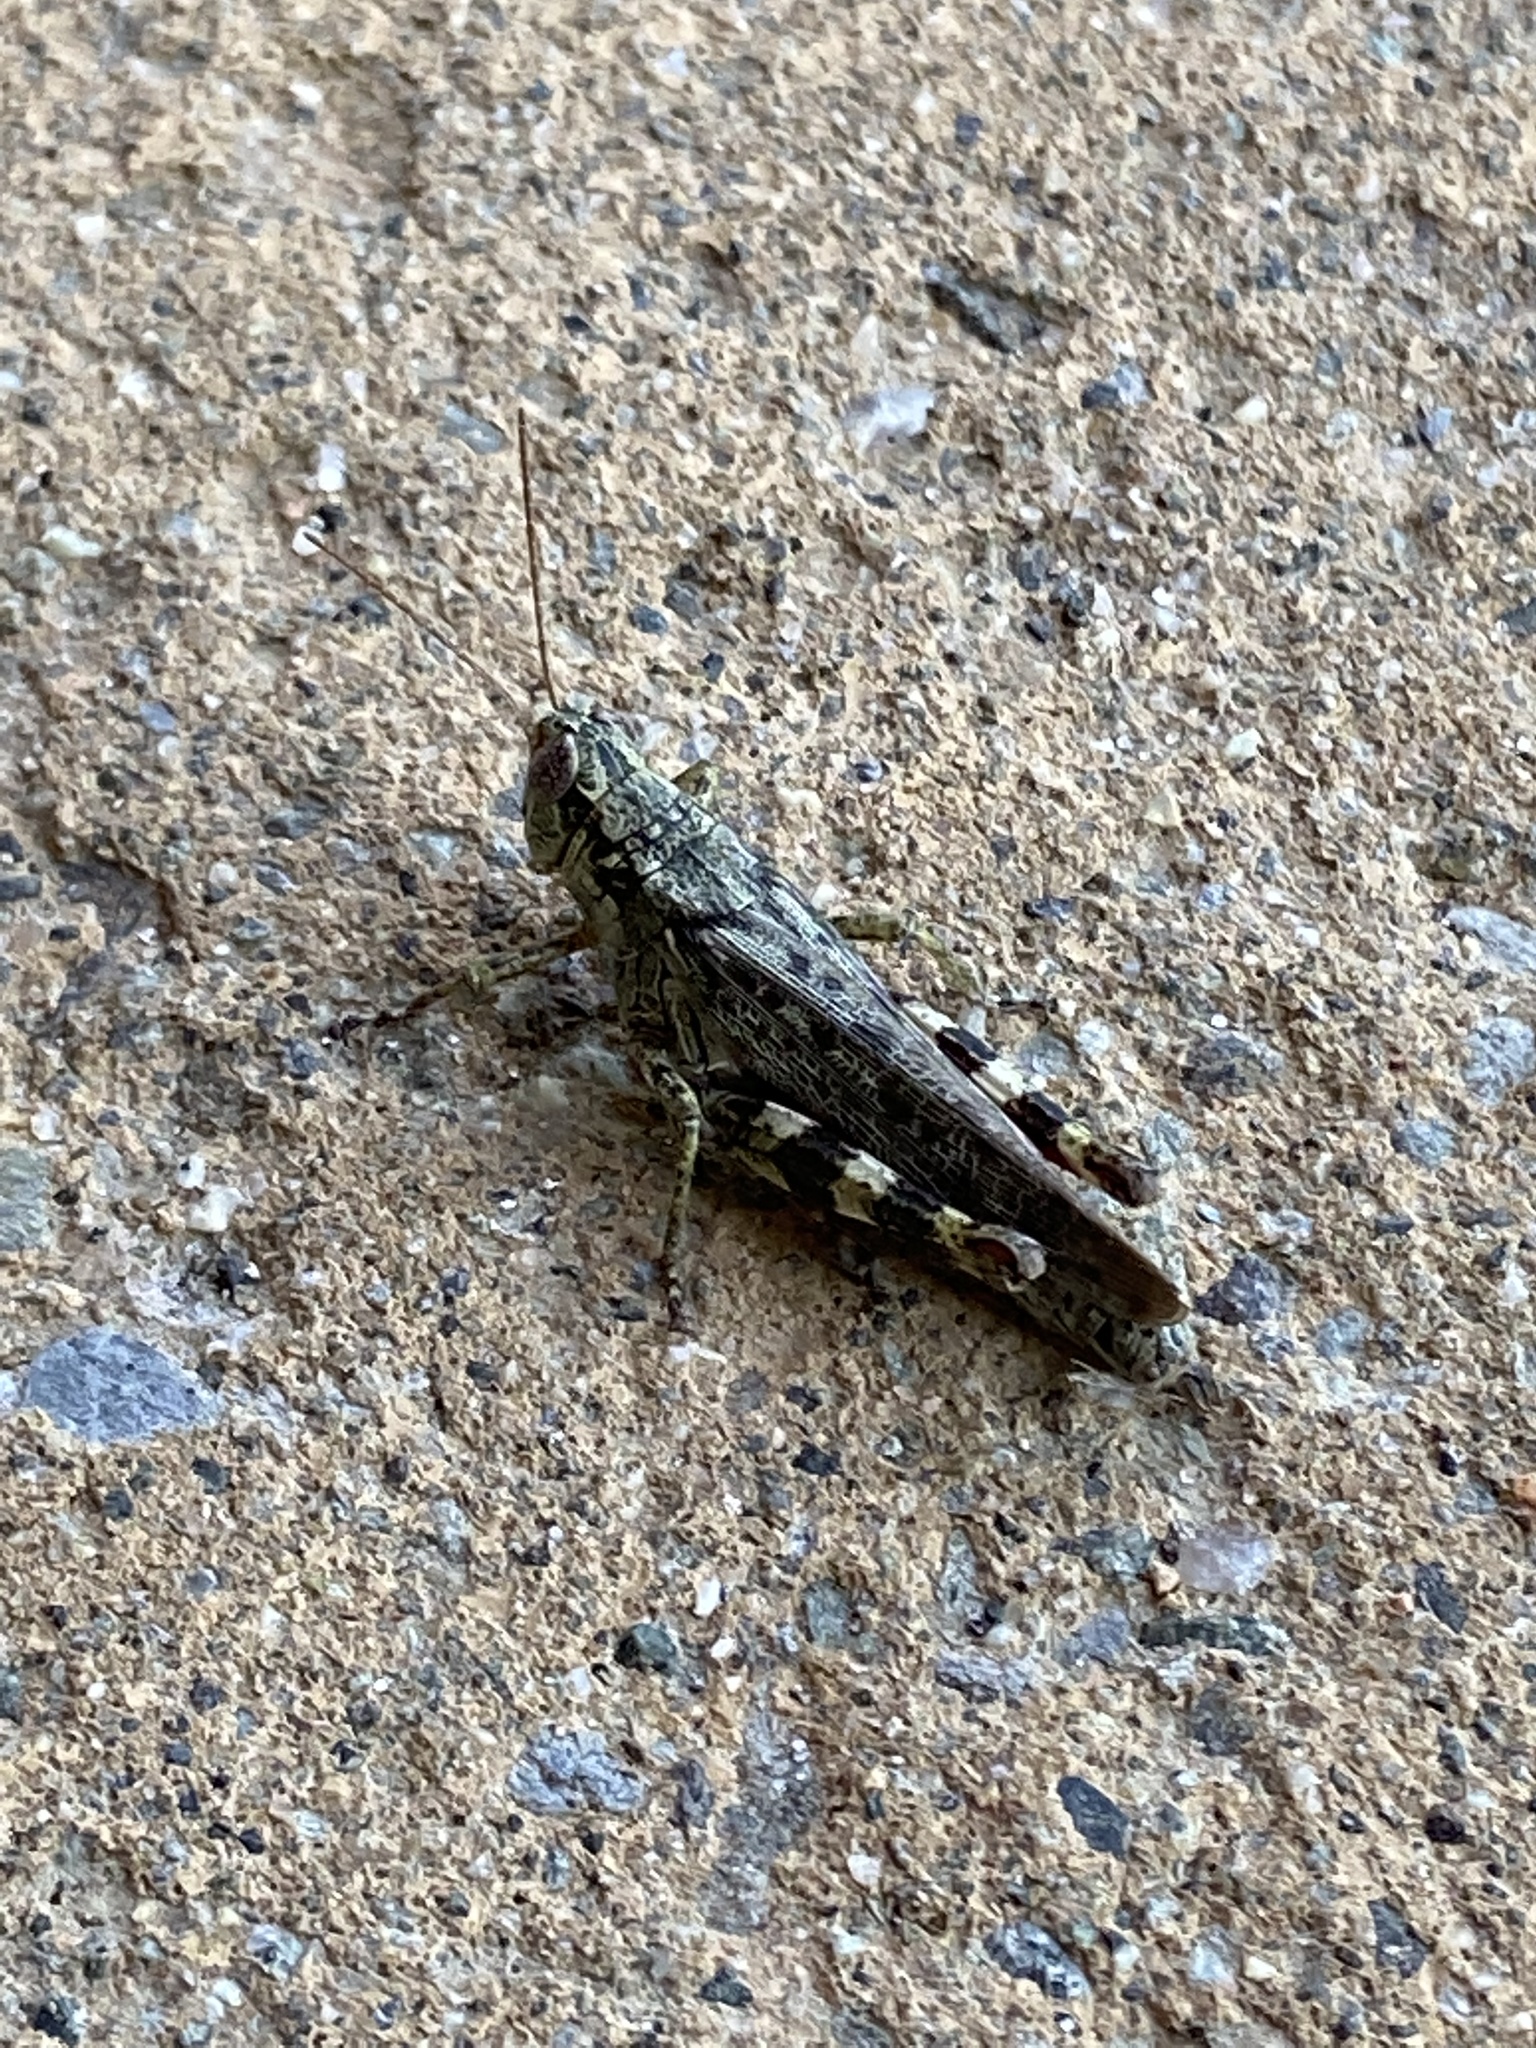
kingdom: Animalia
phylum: Arthropoda
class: Insecta
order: Orthoptera
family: Acrididae
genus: Melanoplus
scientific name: Melanoplus punctulatus
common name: Pine-tree spur-throat grasshopper
